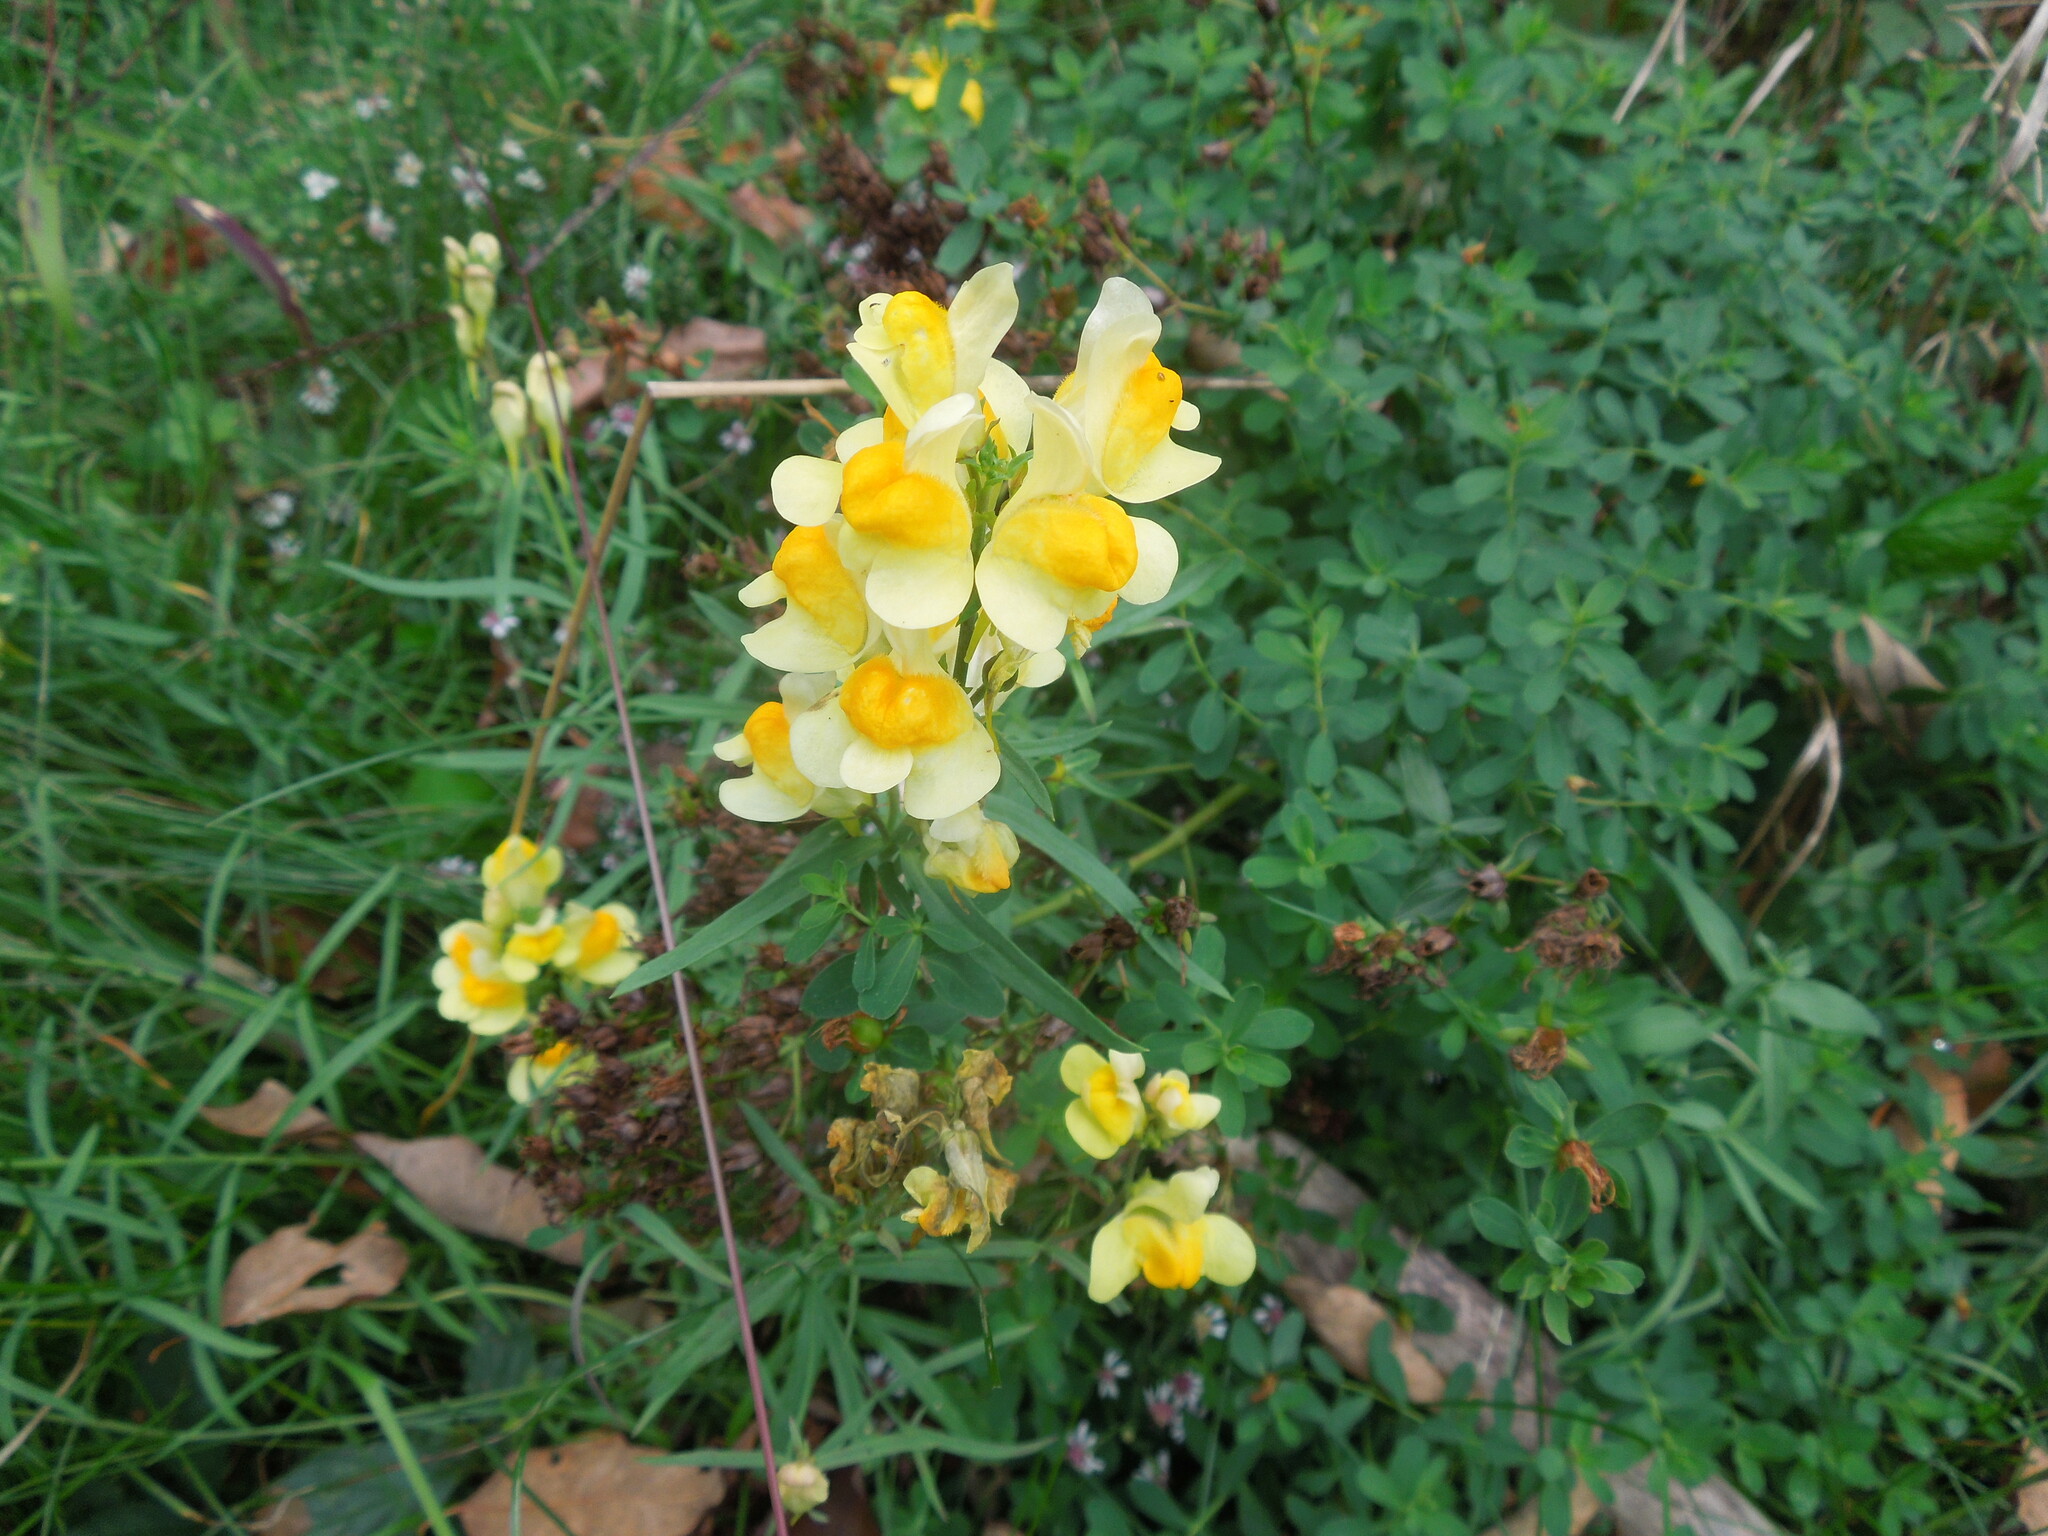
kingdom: Plantae
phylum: Tracheophyta
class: Magnoliopsida
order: Lamiales
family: Plantaginaceae
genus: Linaria
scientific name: Linaria vulgaris
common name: Butter and eggs
